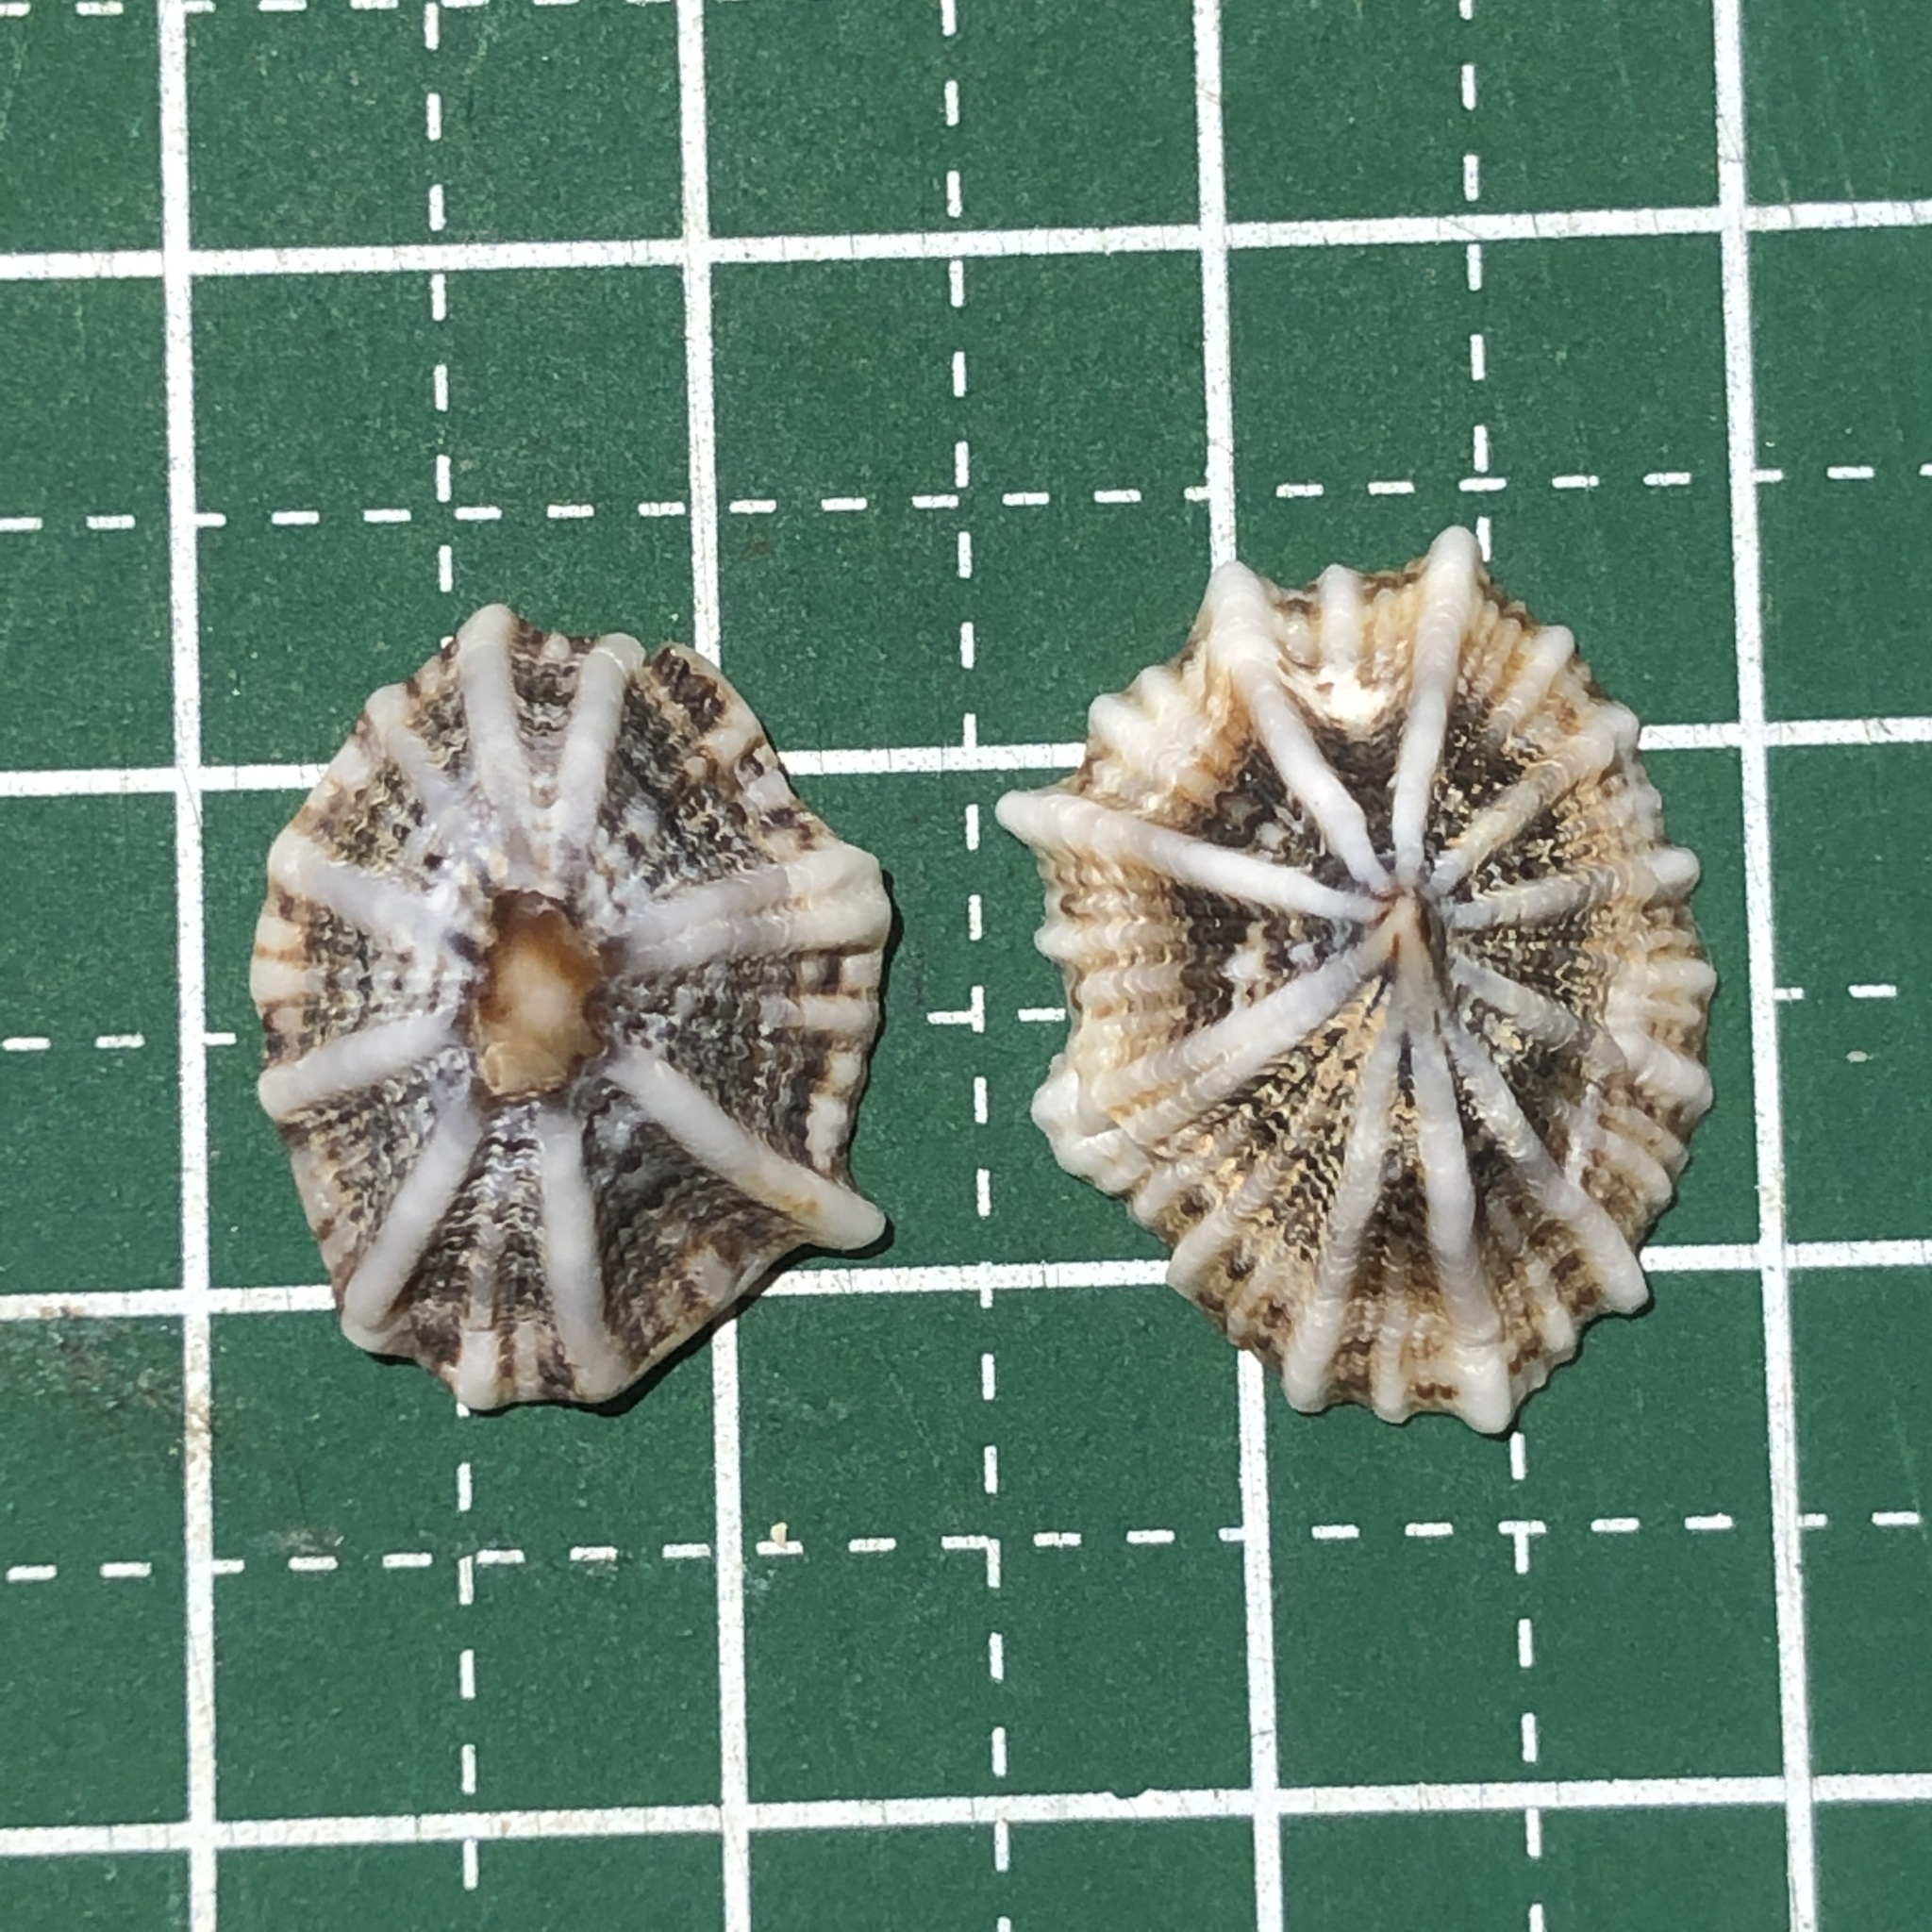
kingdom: Animalia
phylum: Mollusca
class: Gastropoda
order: Siphonariida
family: Siphonariidae
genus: Siphonaria
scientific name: Siphonaria laciniosa
